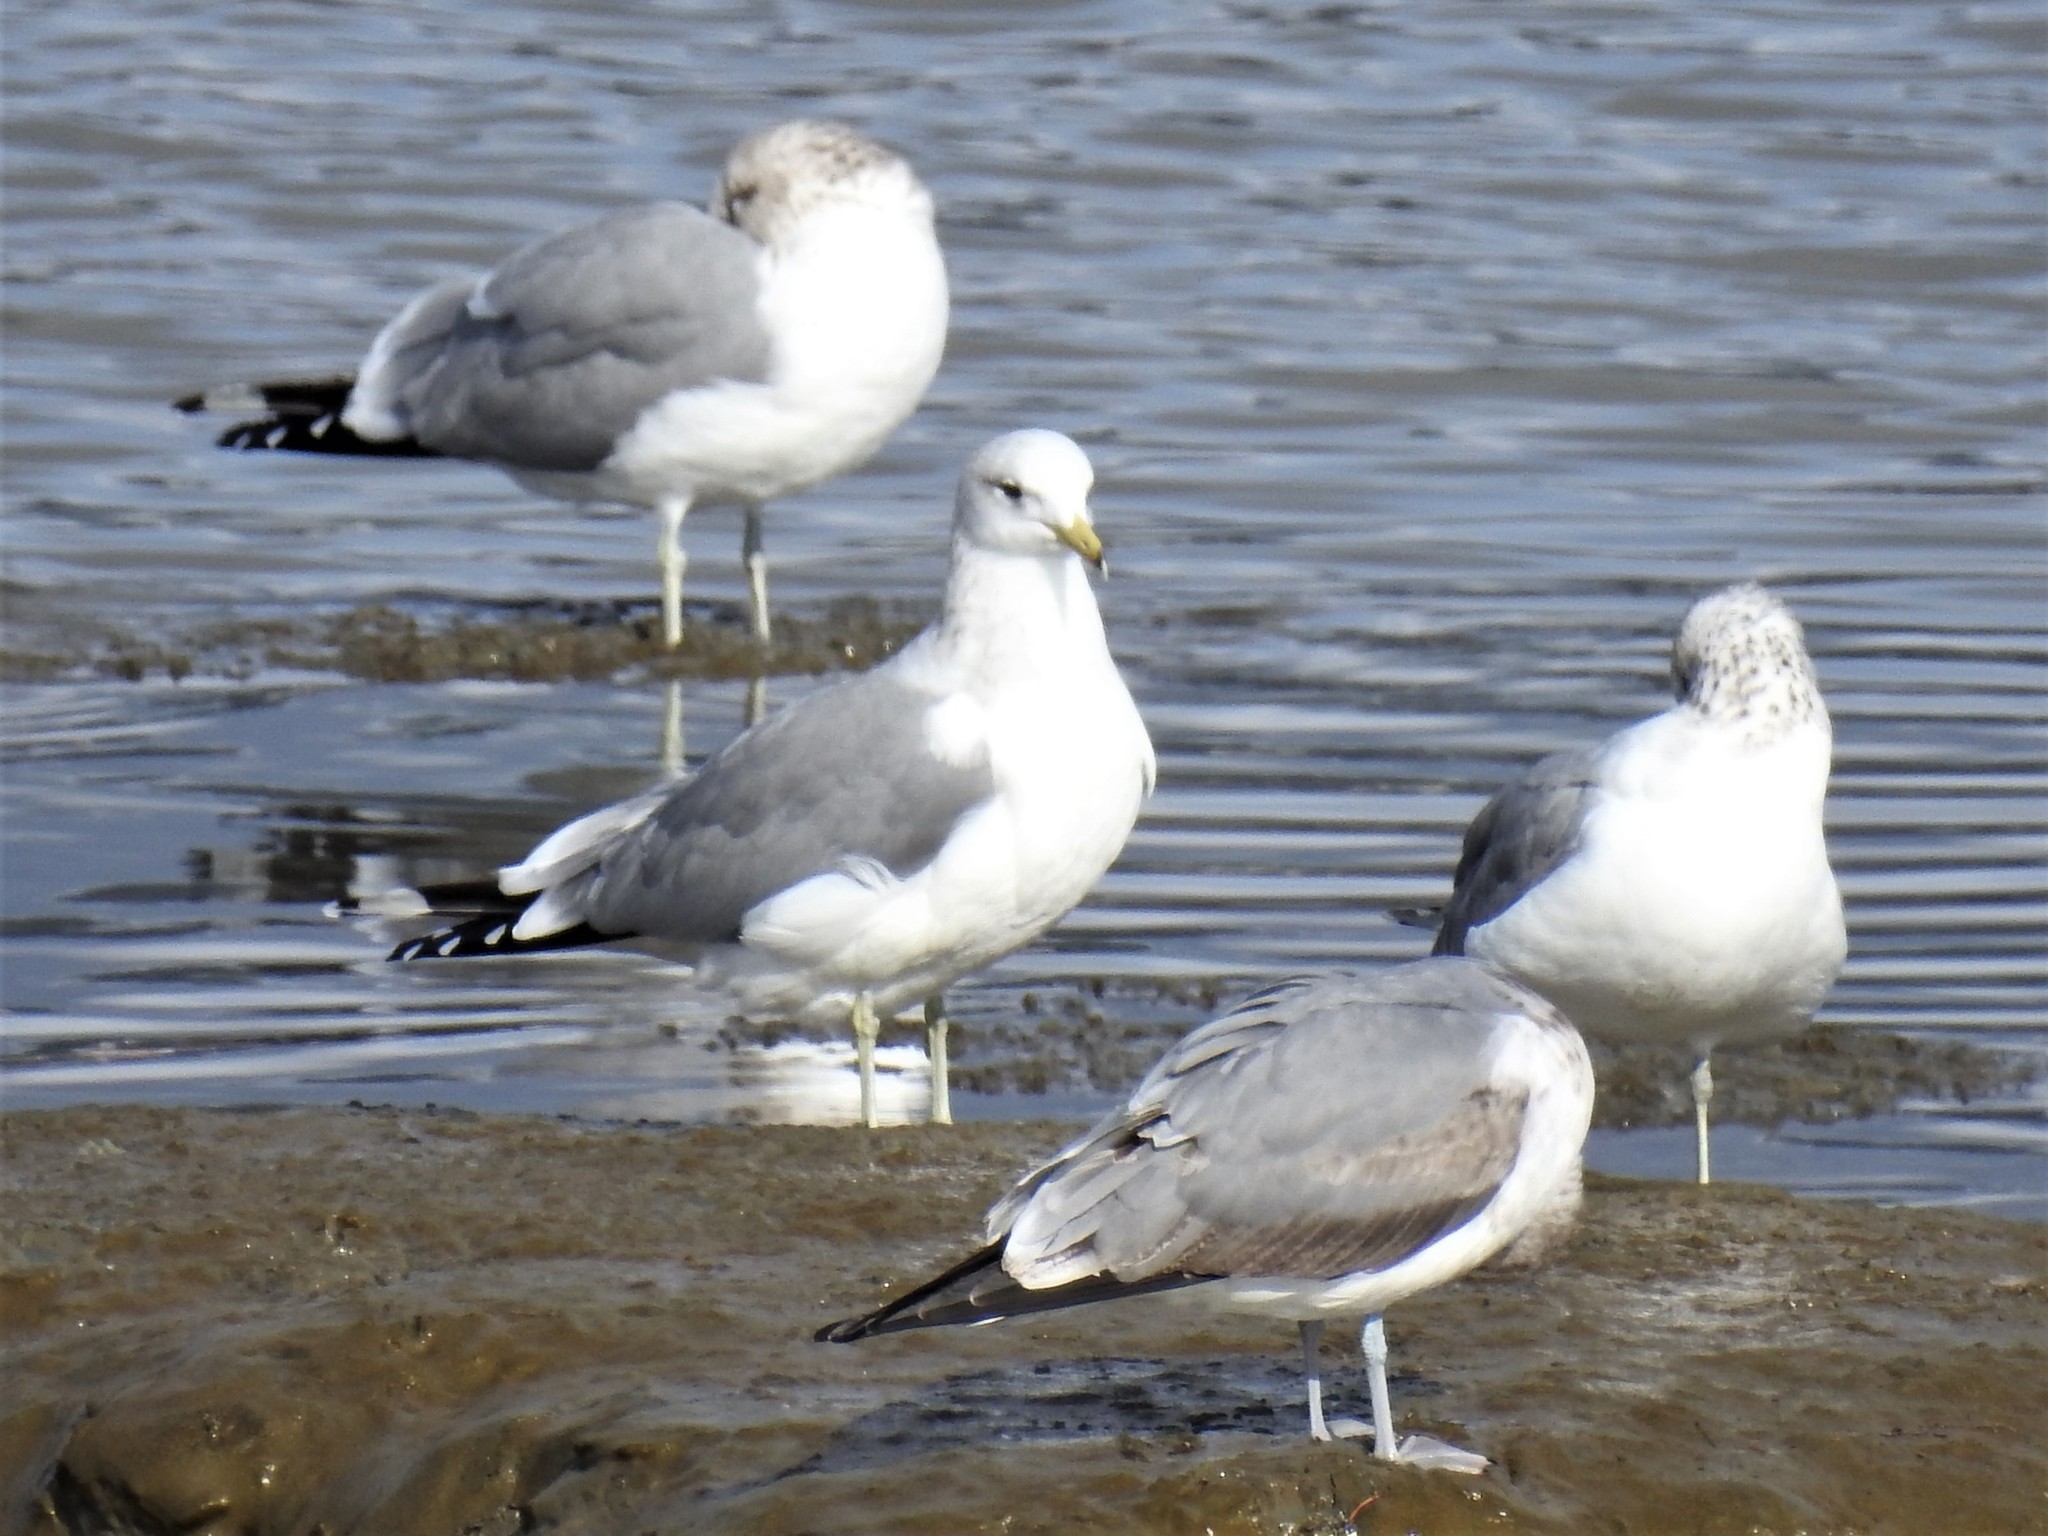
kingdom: Animalia
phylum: Chordata
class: Aves
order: Charadriiformes
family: Laridae
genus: Larus
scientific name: Larus californicus
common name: California gull
